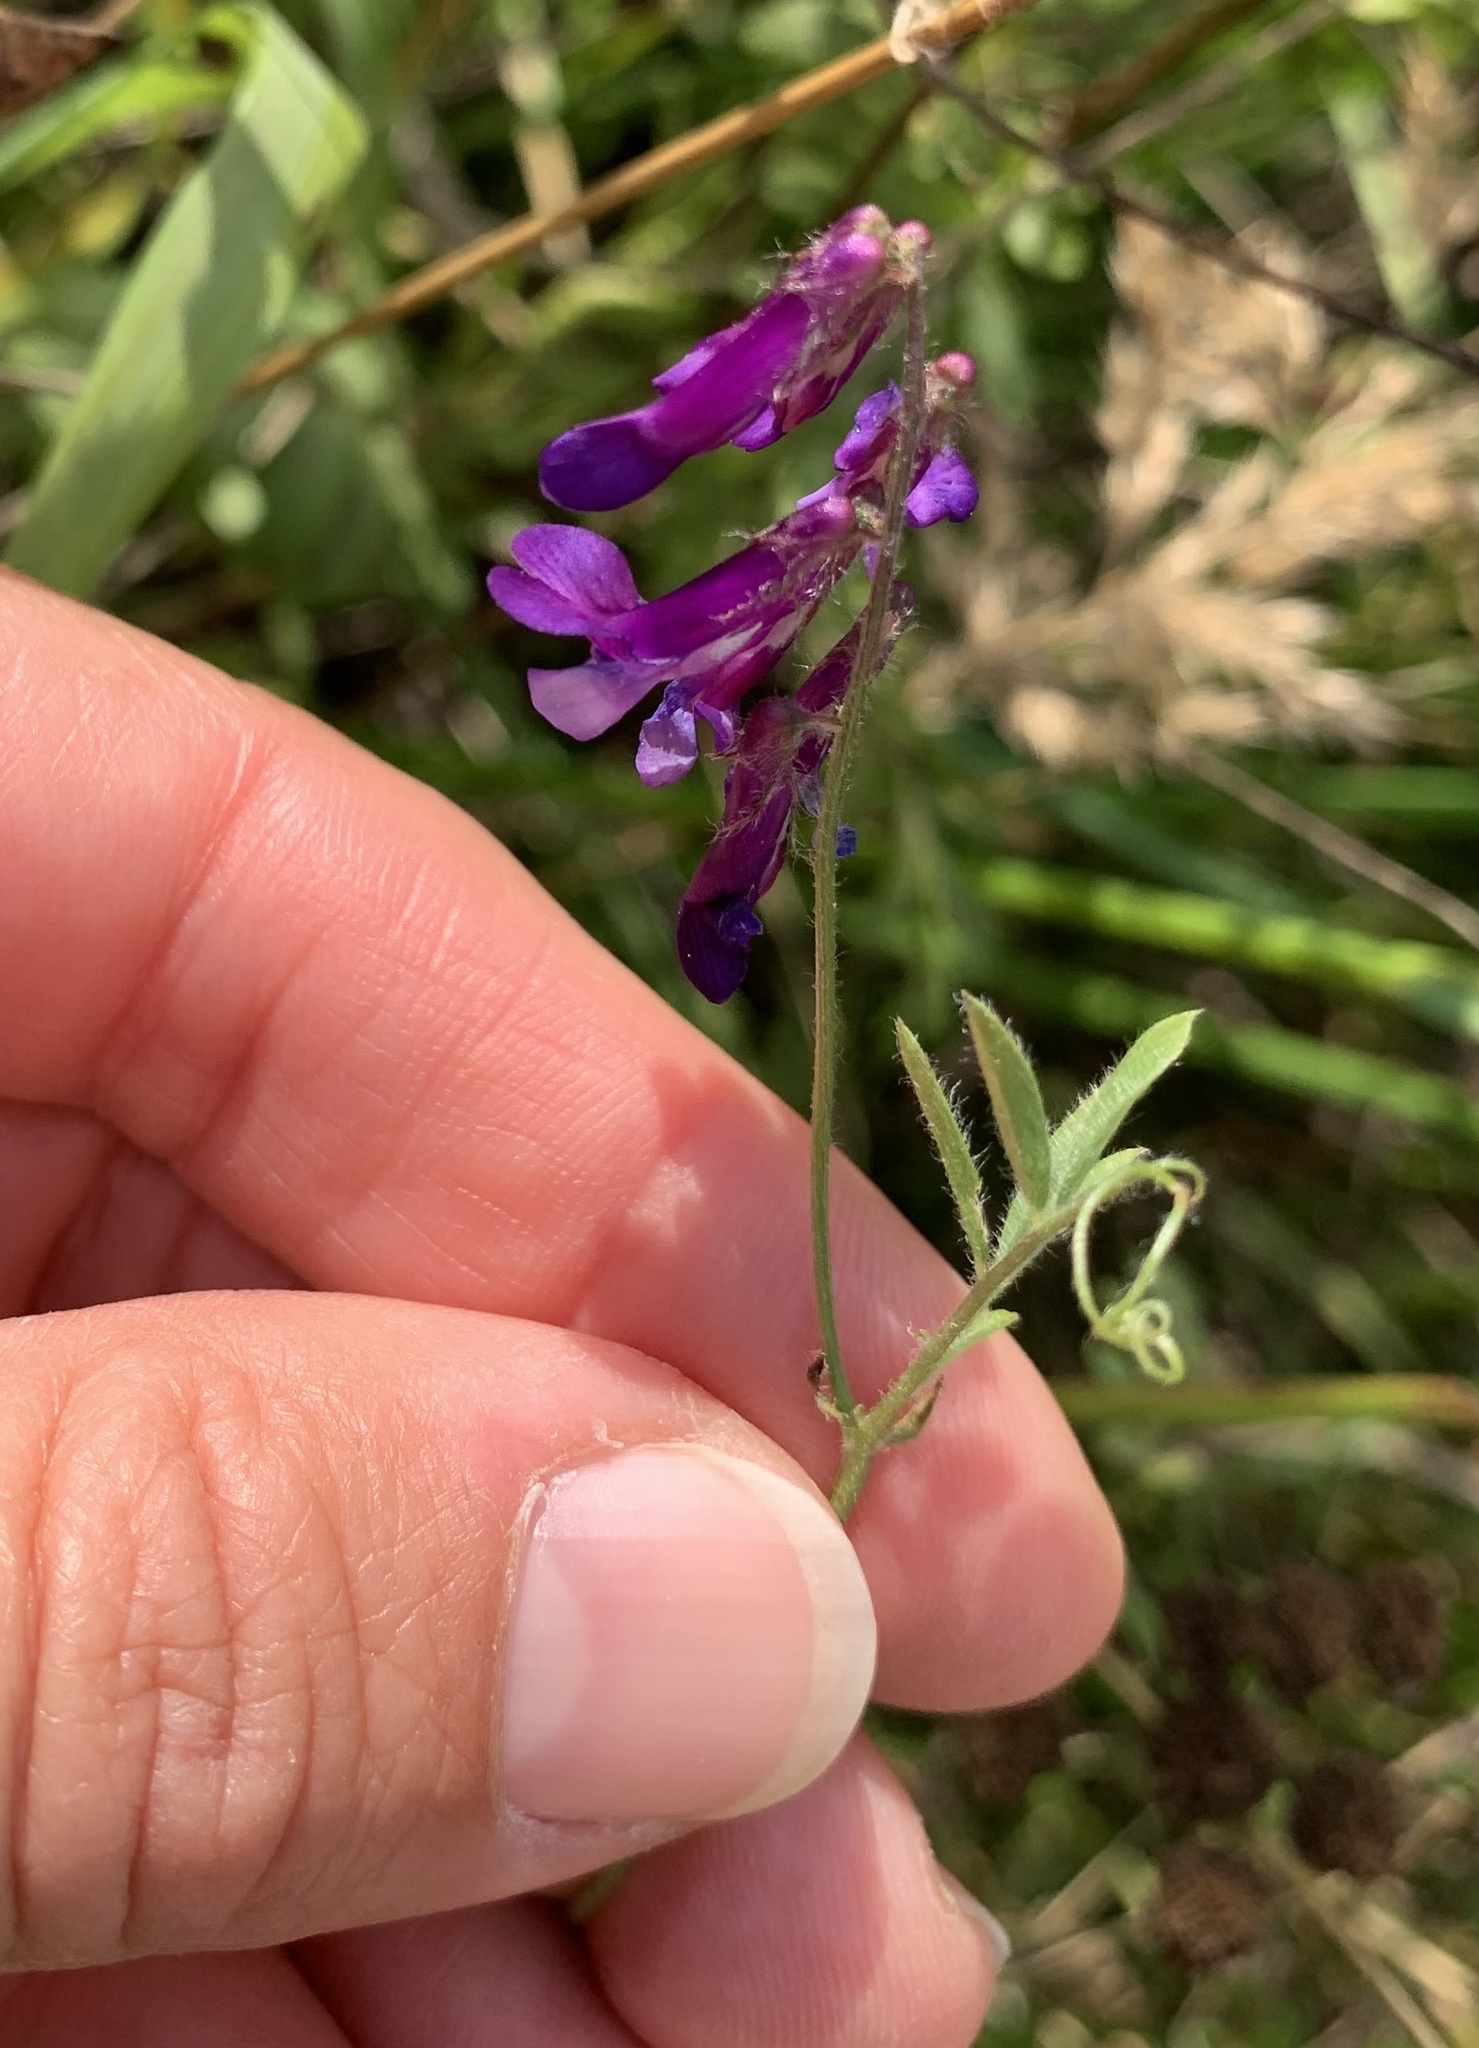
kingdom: Plantae
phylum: Tracheophyta
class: Magnoliopsida
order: Fabales
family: Fabaceae
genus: Vicia
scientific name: Vicia villosa
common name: Fodder vetch
